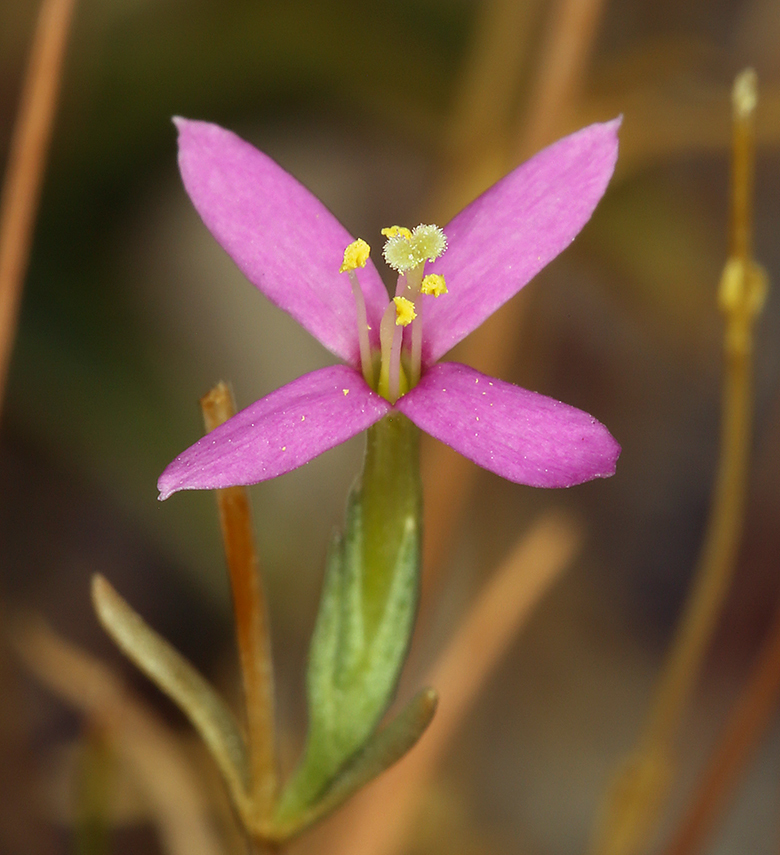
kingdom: Plantae
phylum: Tracheophyta
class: Magnoliopsida
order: Gentianales
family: Gentianaceae
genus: Zeltnera
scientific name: Zeltnera exaltata
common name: Great basin centaury
